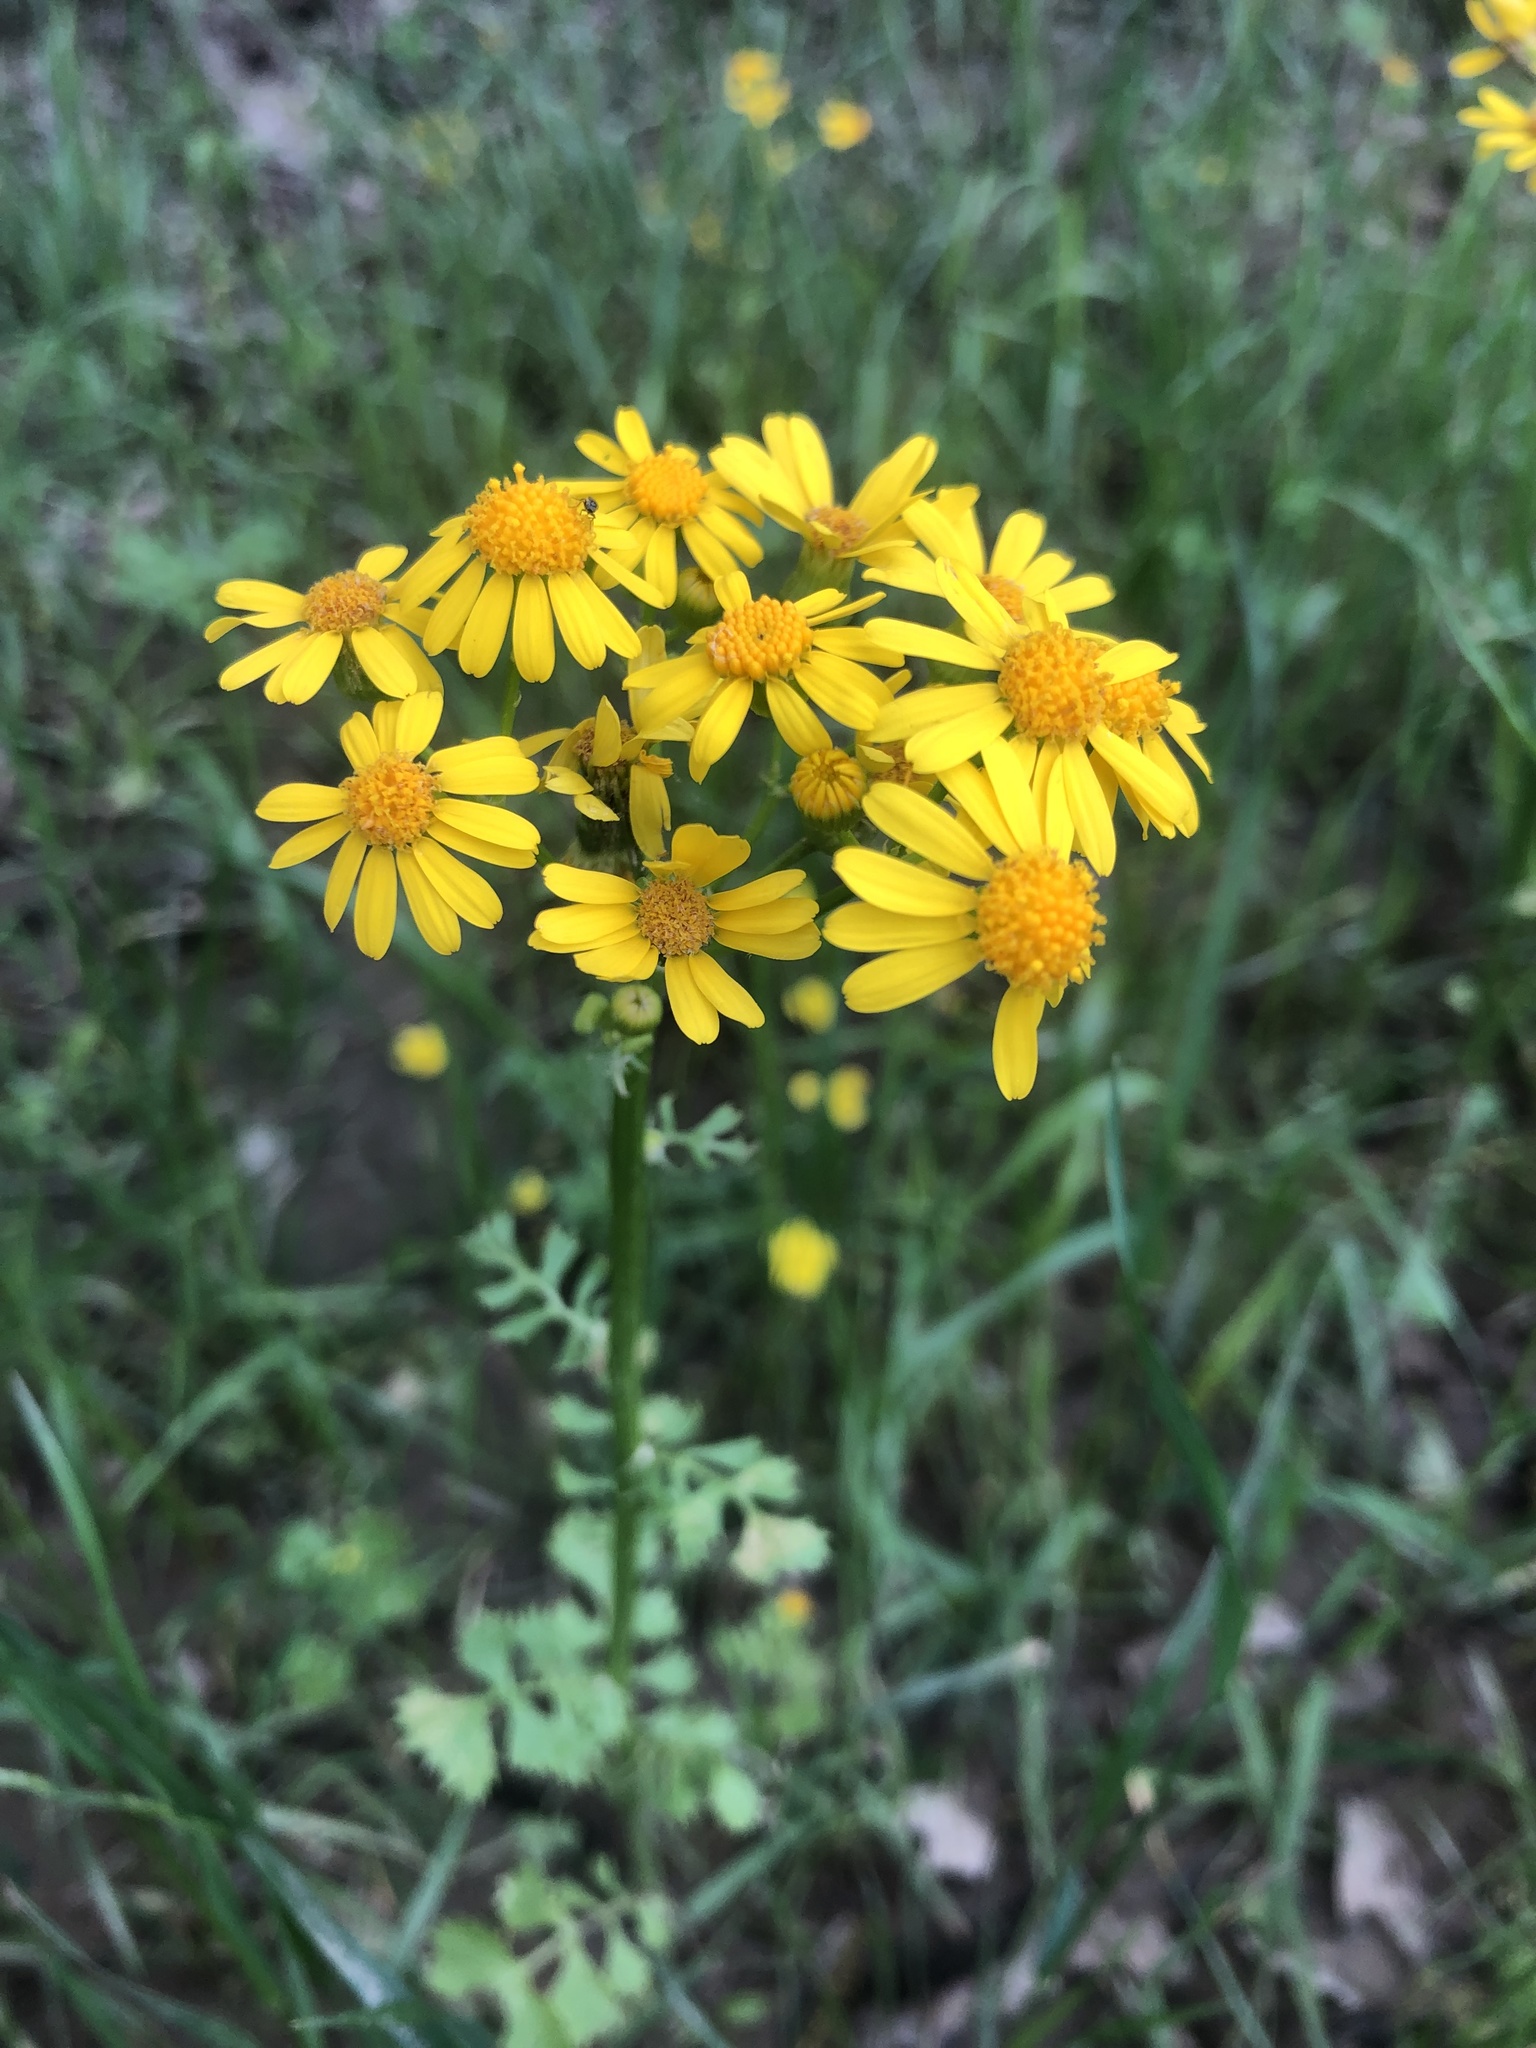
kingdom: Plantae
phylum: Tracheophyta
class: Magnoliopsida
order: Asterales
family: Asteraceae
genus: Packera
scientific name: Packera glabella
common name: Butterweed
